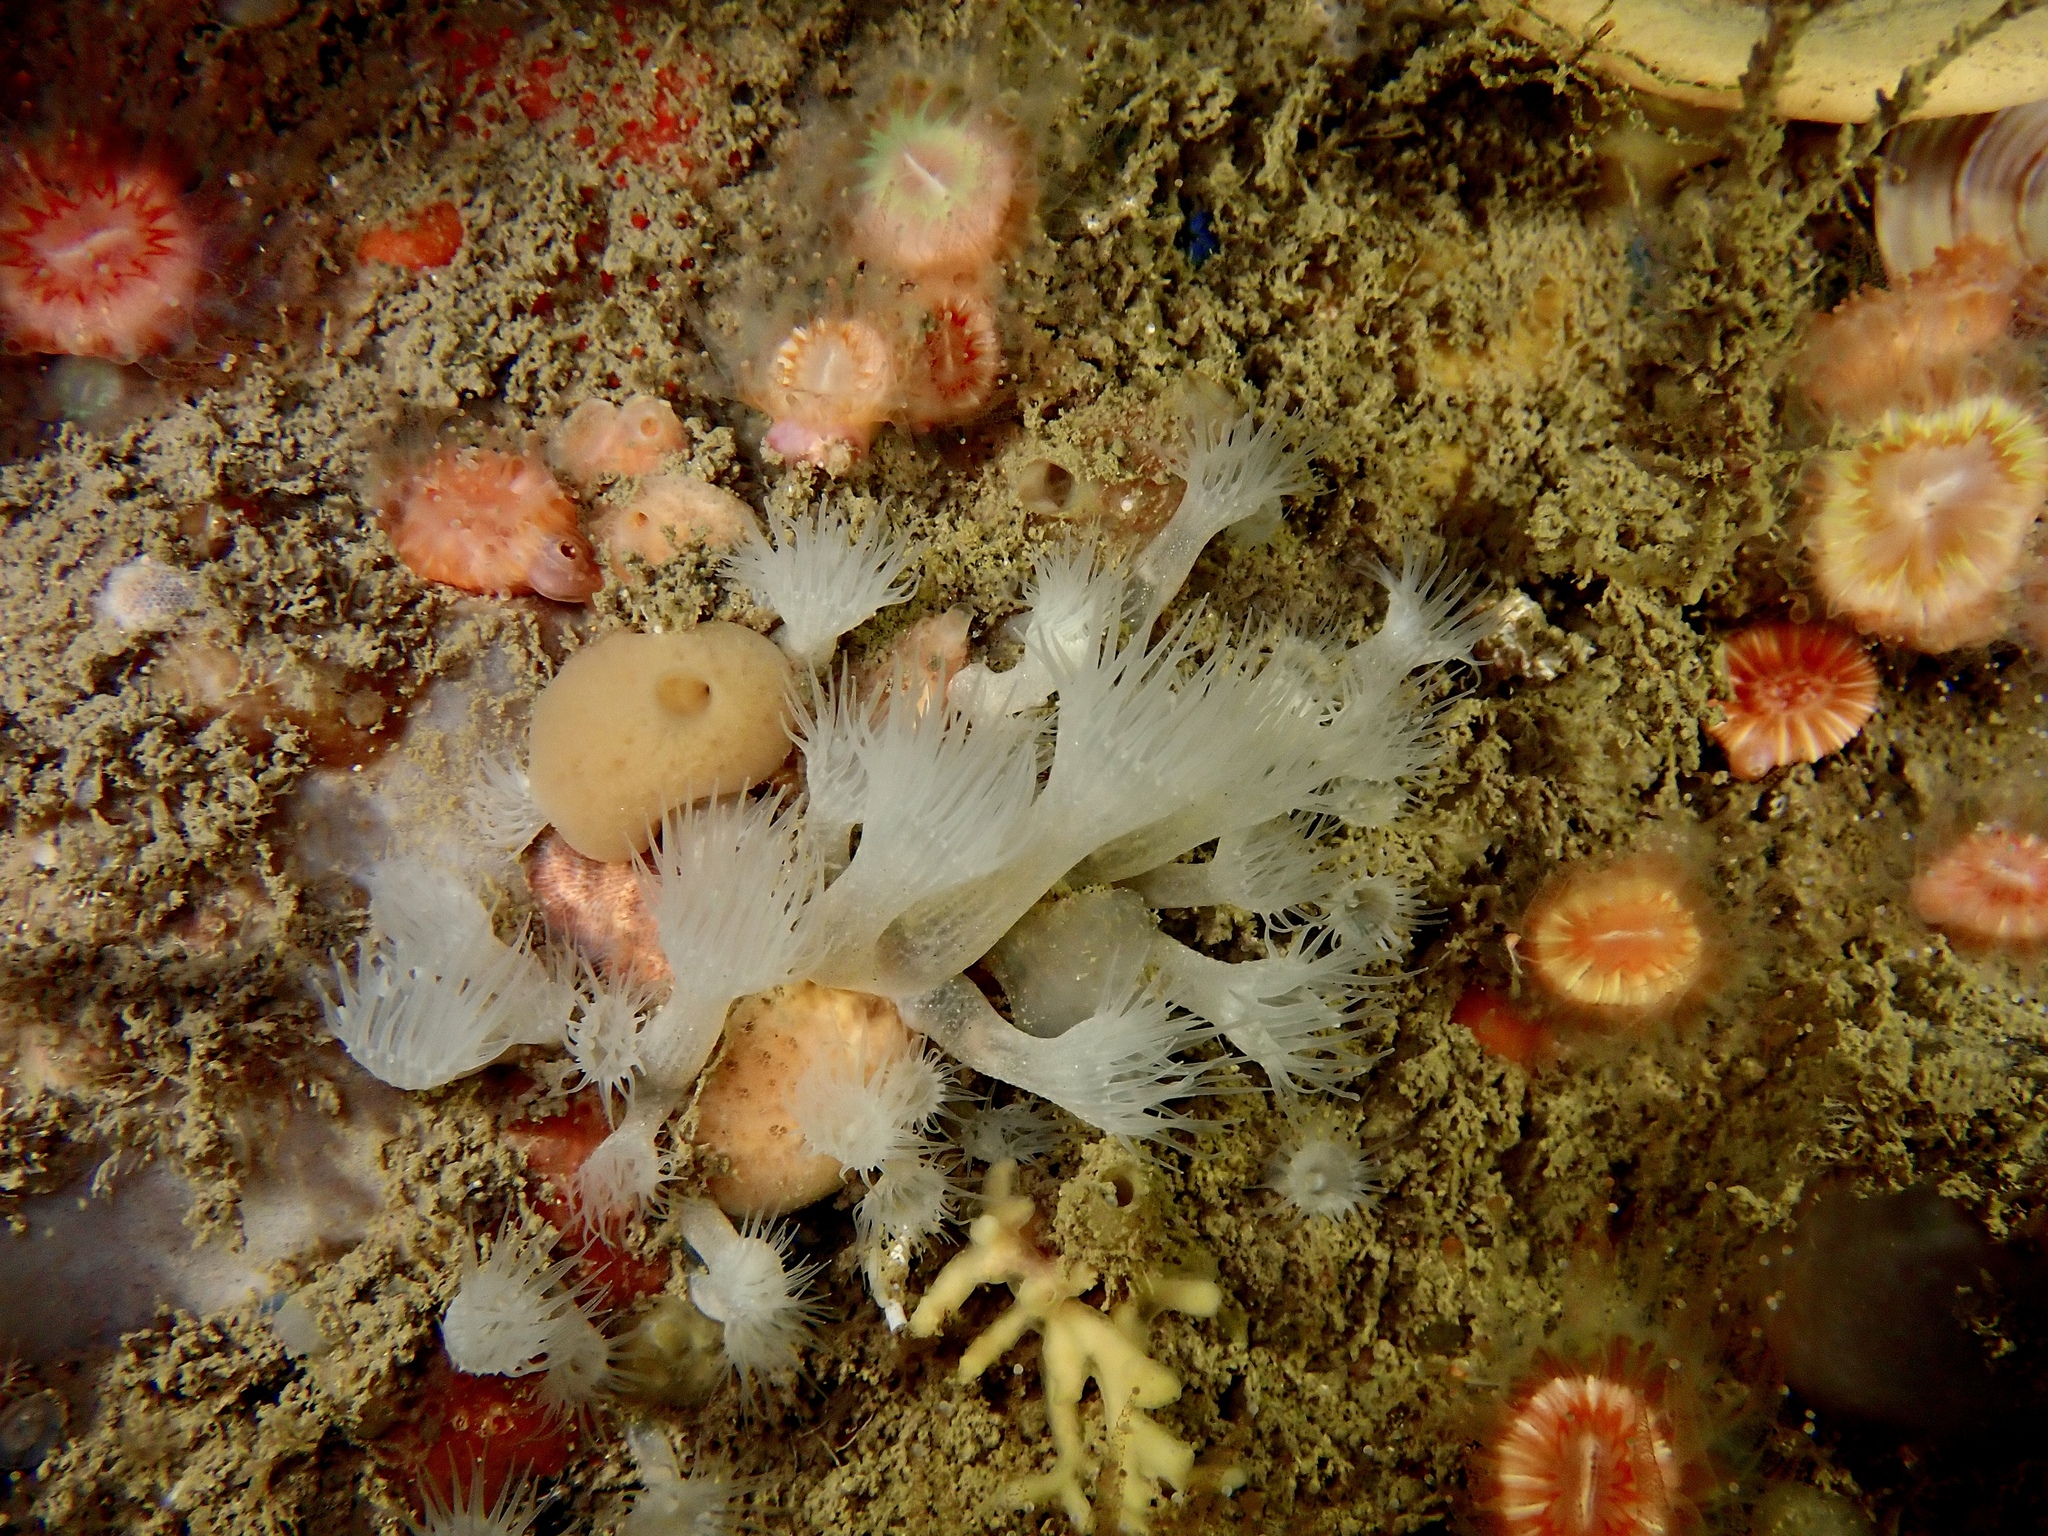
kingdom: Animalia
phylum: Cnidaria
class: Anthozoa
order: Zoantharia
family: Parazoanthidae
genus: Parazoanthus
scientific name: Parazoanthus anguicomus
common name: White cluster anemone
